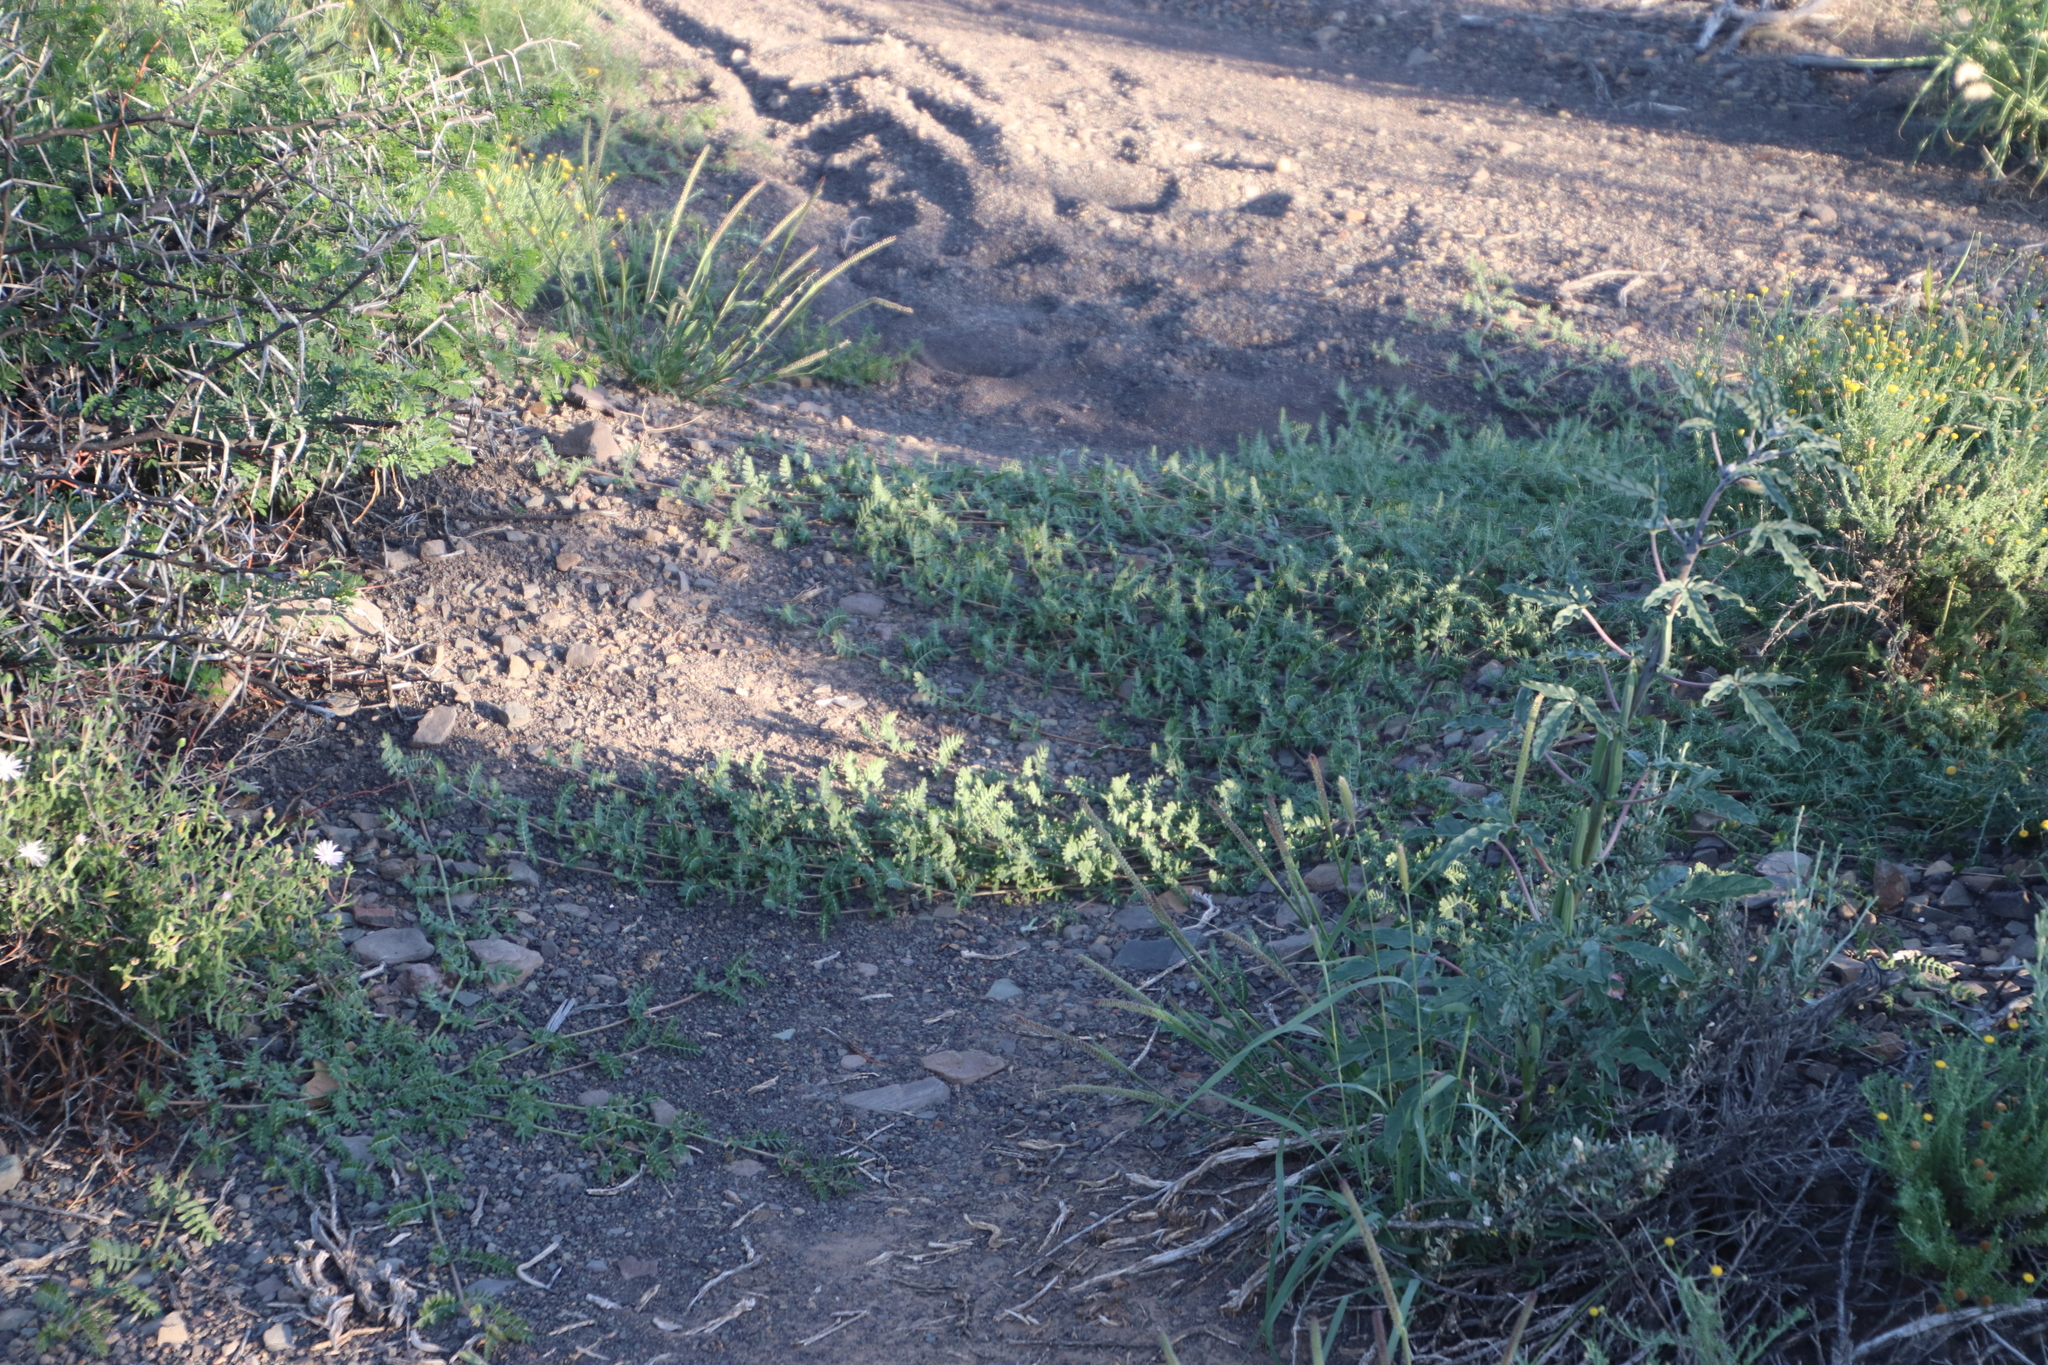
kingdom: Plantae
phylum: Tracheophyta
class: Magnoliopsida
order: Zygophyllales
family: Zygophyllaceae
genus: Tribulus
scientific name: Tribulus terrestris
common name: Puncturevine
